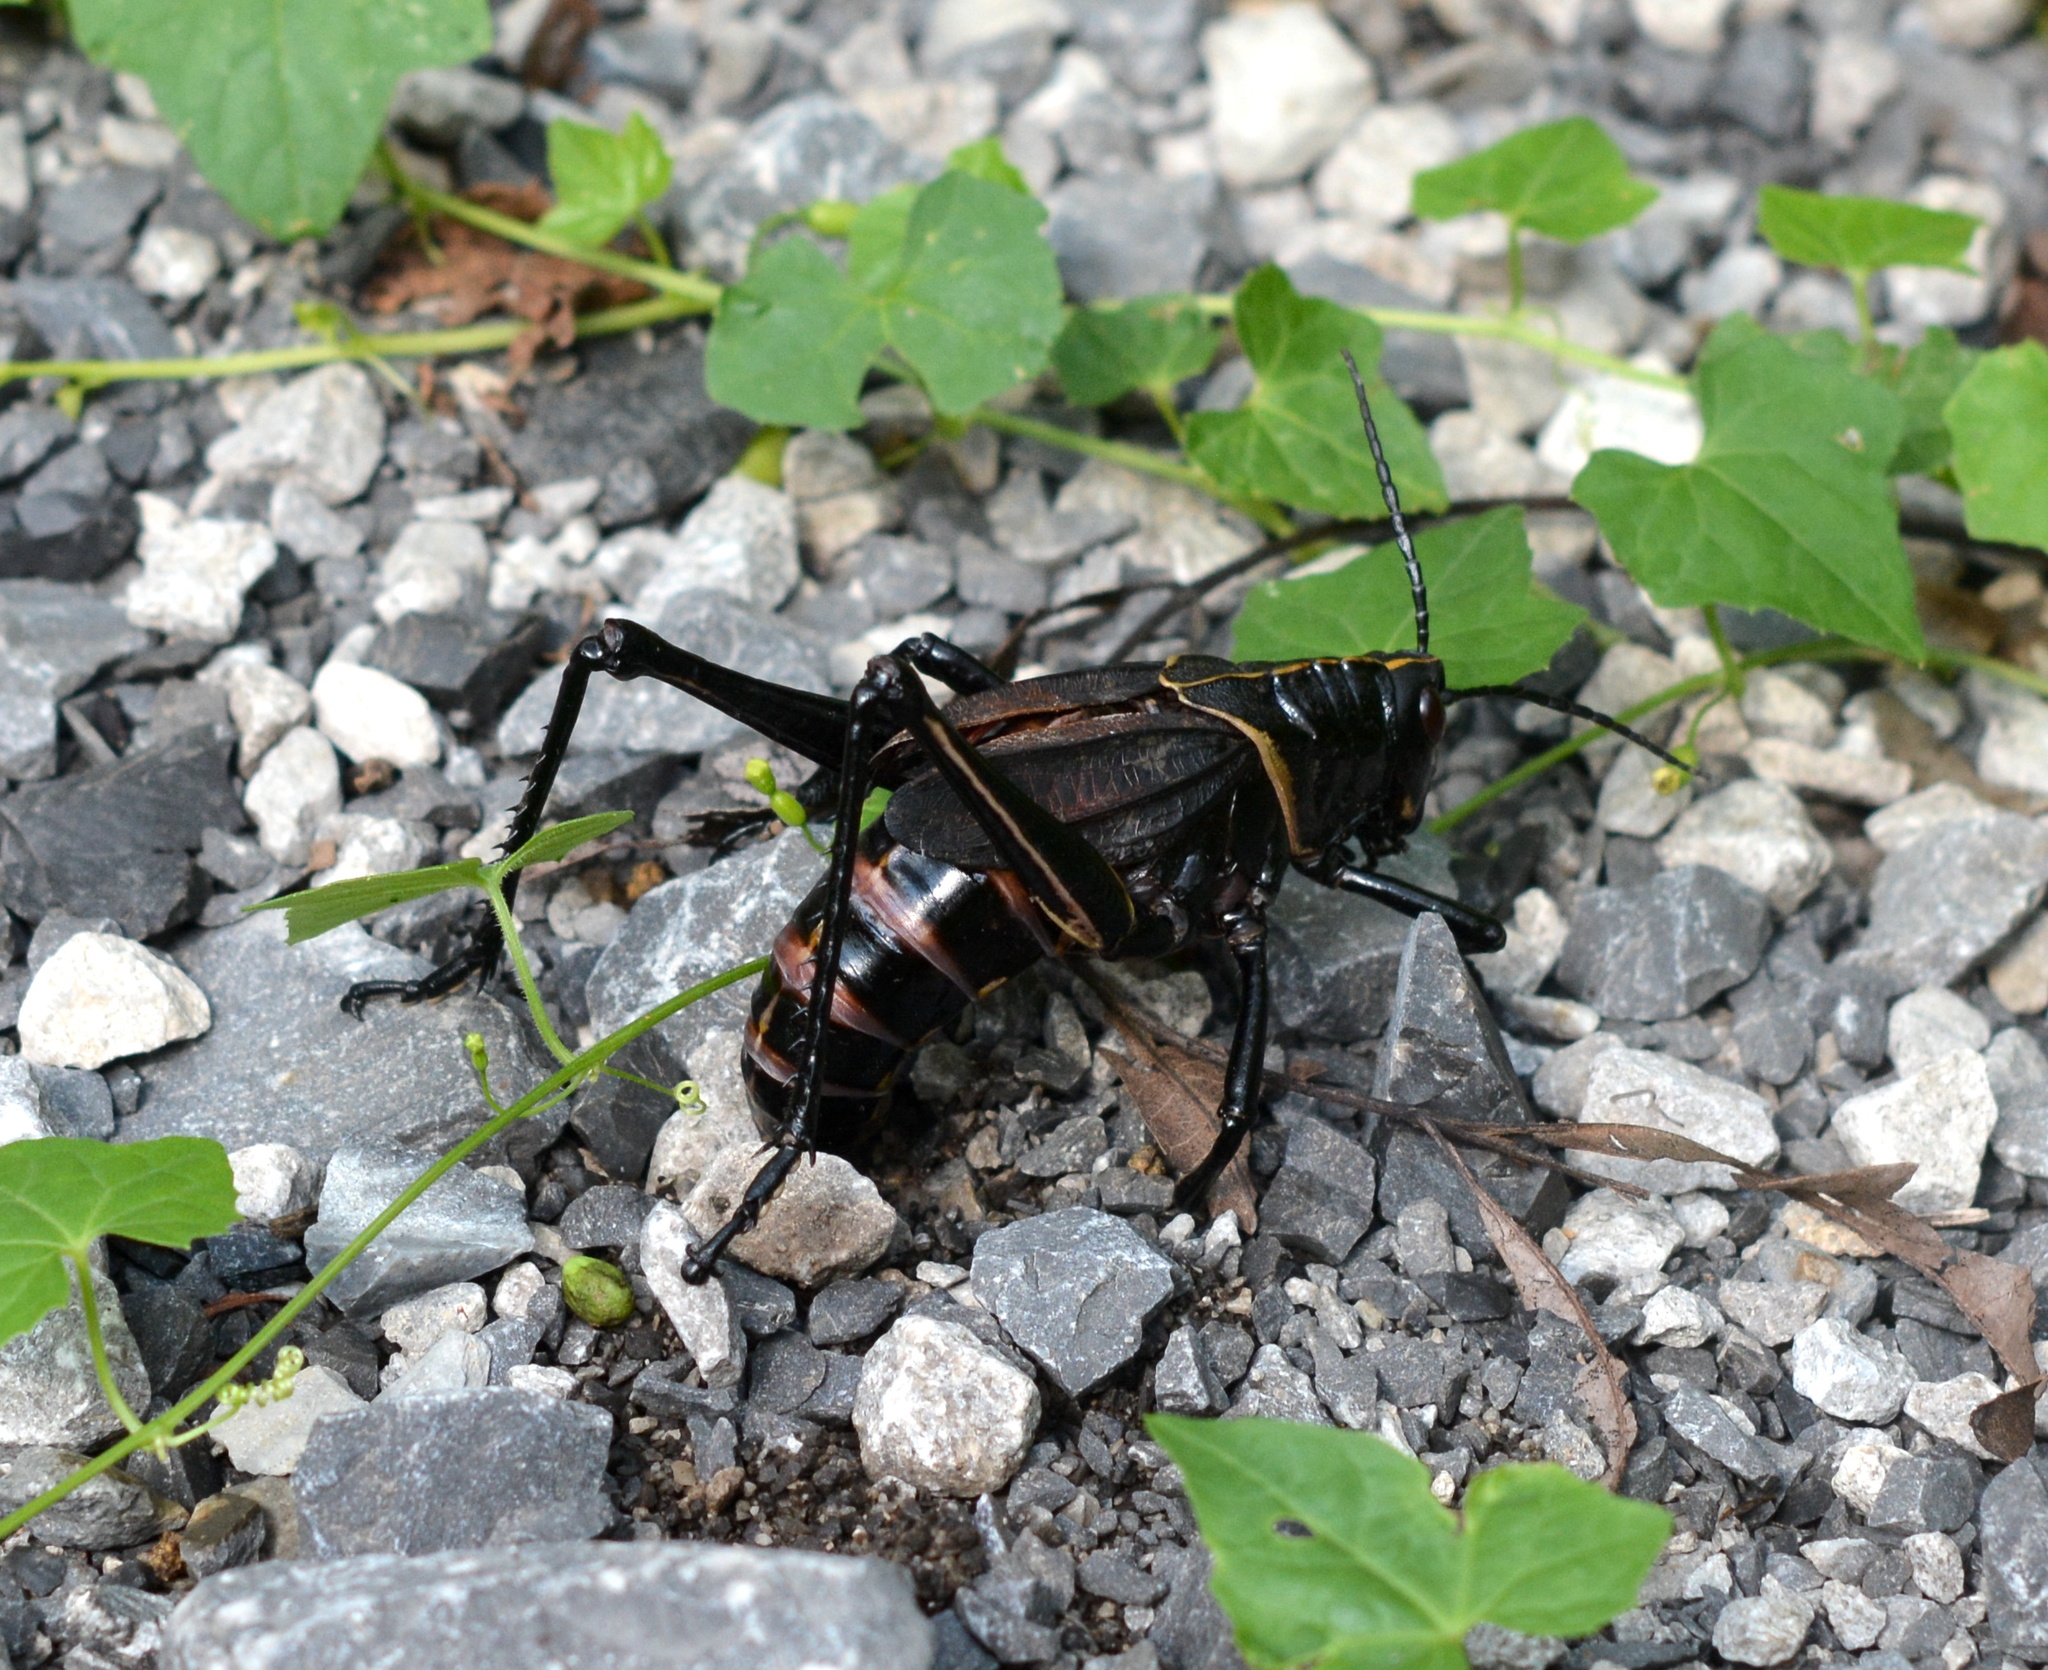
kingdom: Animalia
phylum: Arthropoda
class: Insecta
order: Orthoptera
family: Romaleidae
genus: Romalea
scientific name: Romalea microptera
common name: Eastern lubber grasshopper
